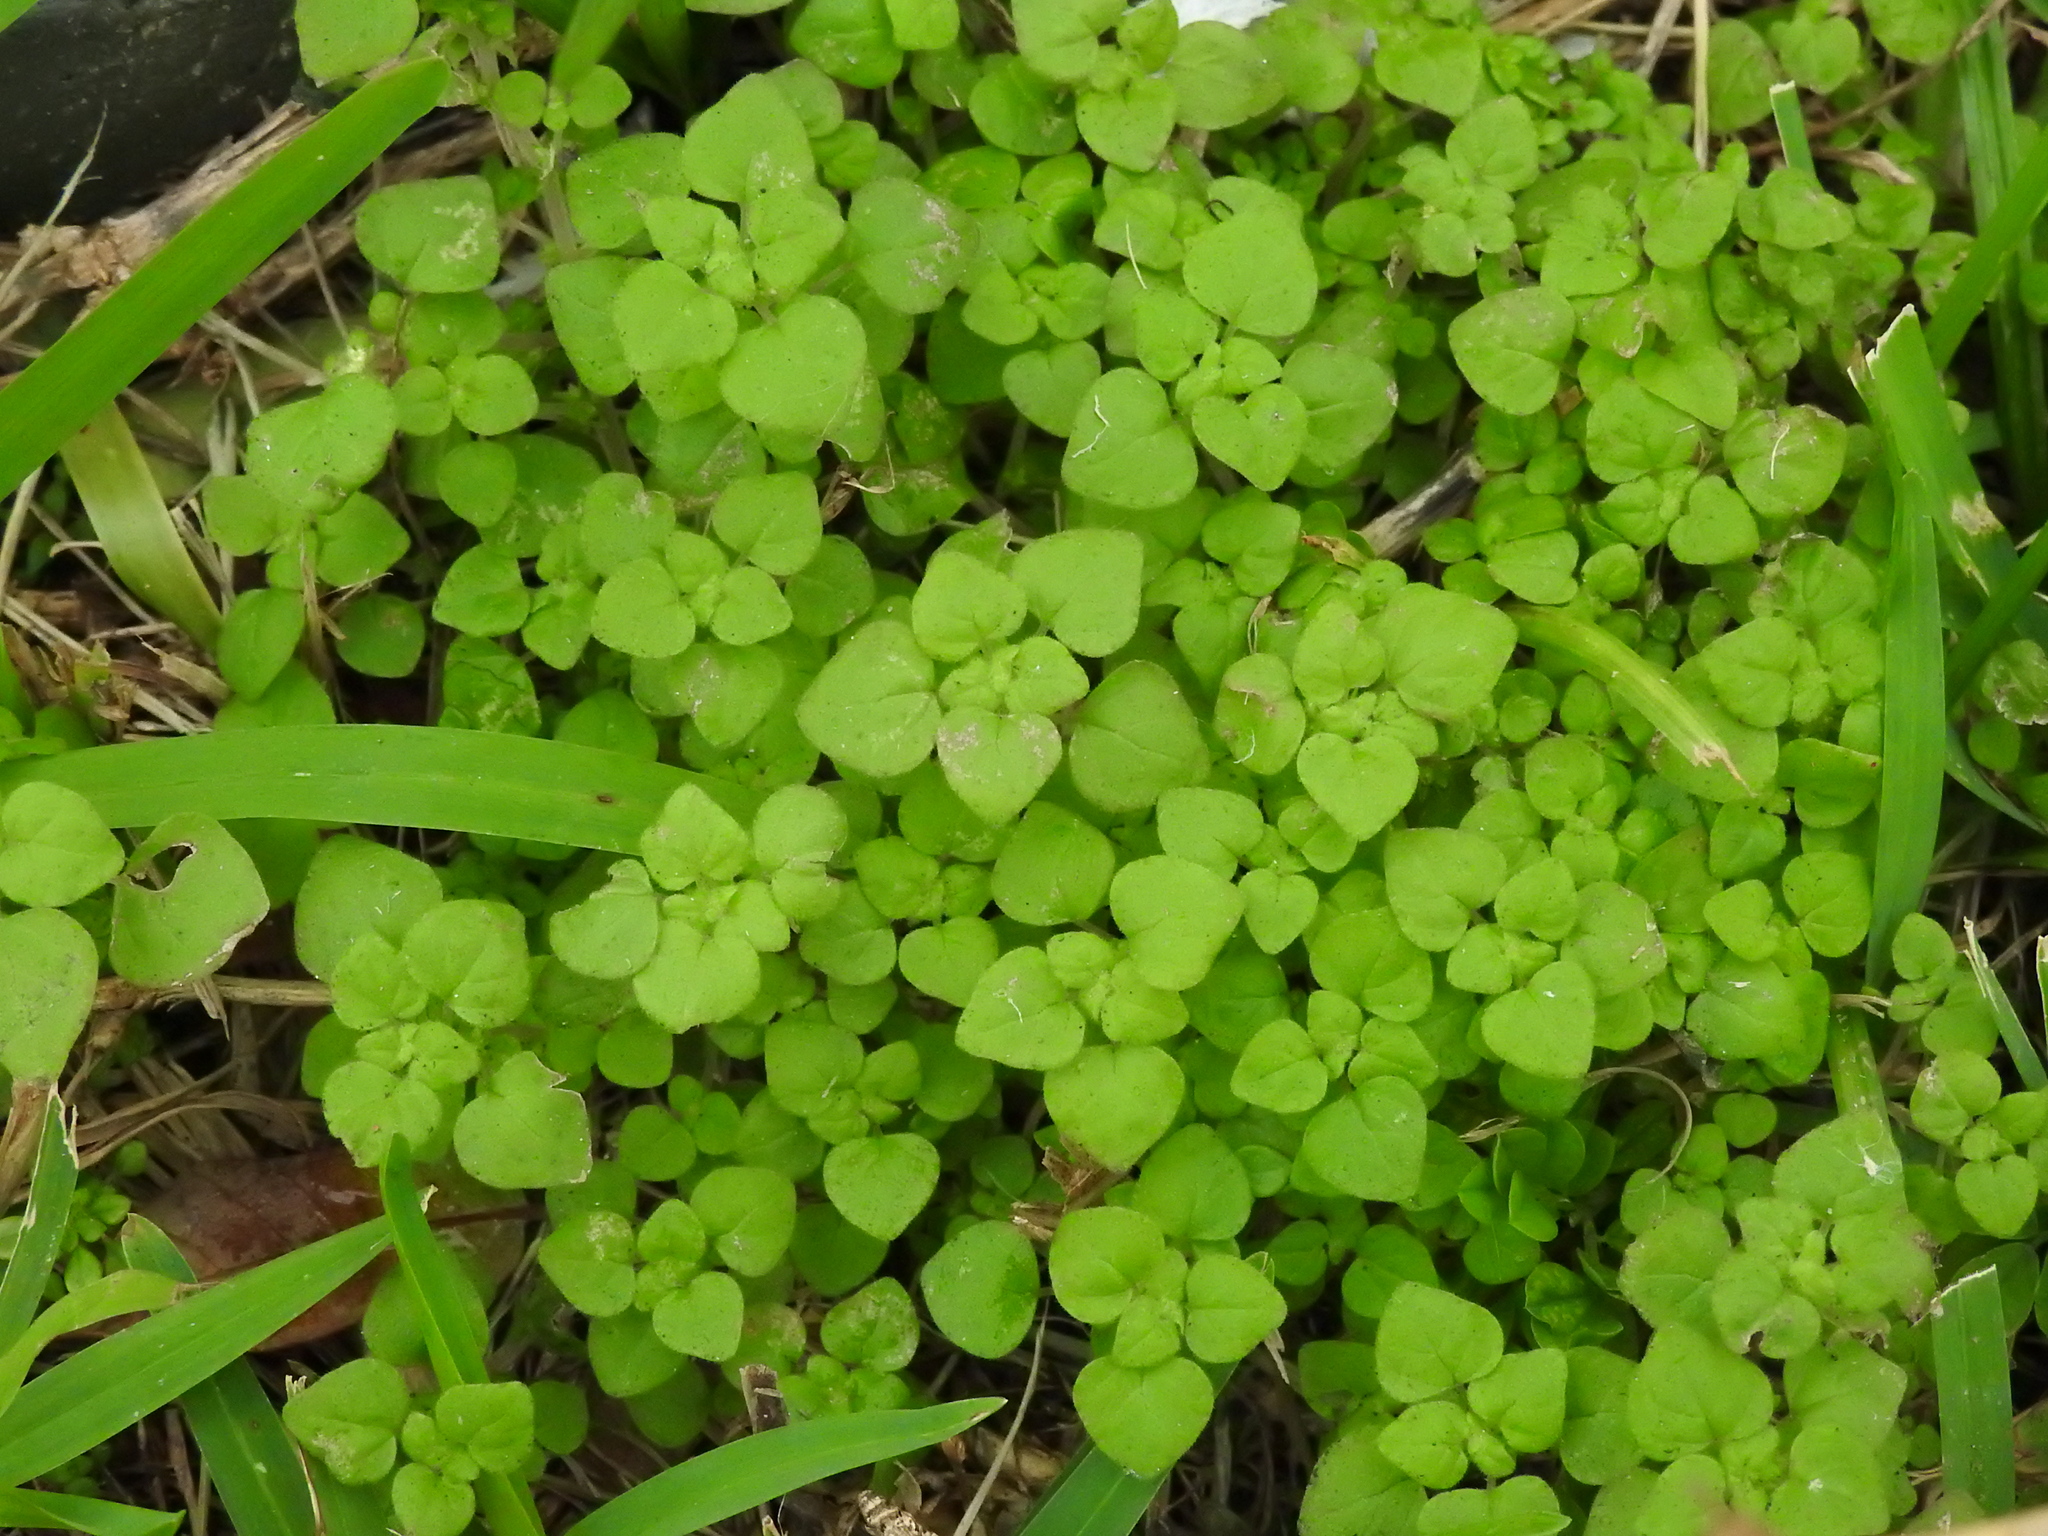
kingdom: Plantae
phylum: Tracheophyta
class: Magnoliopsida
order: Rosales
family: Urticaceae
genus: Parietaria
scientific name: Parietaria floridana
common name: Florida pellitory
